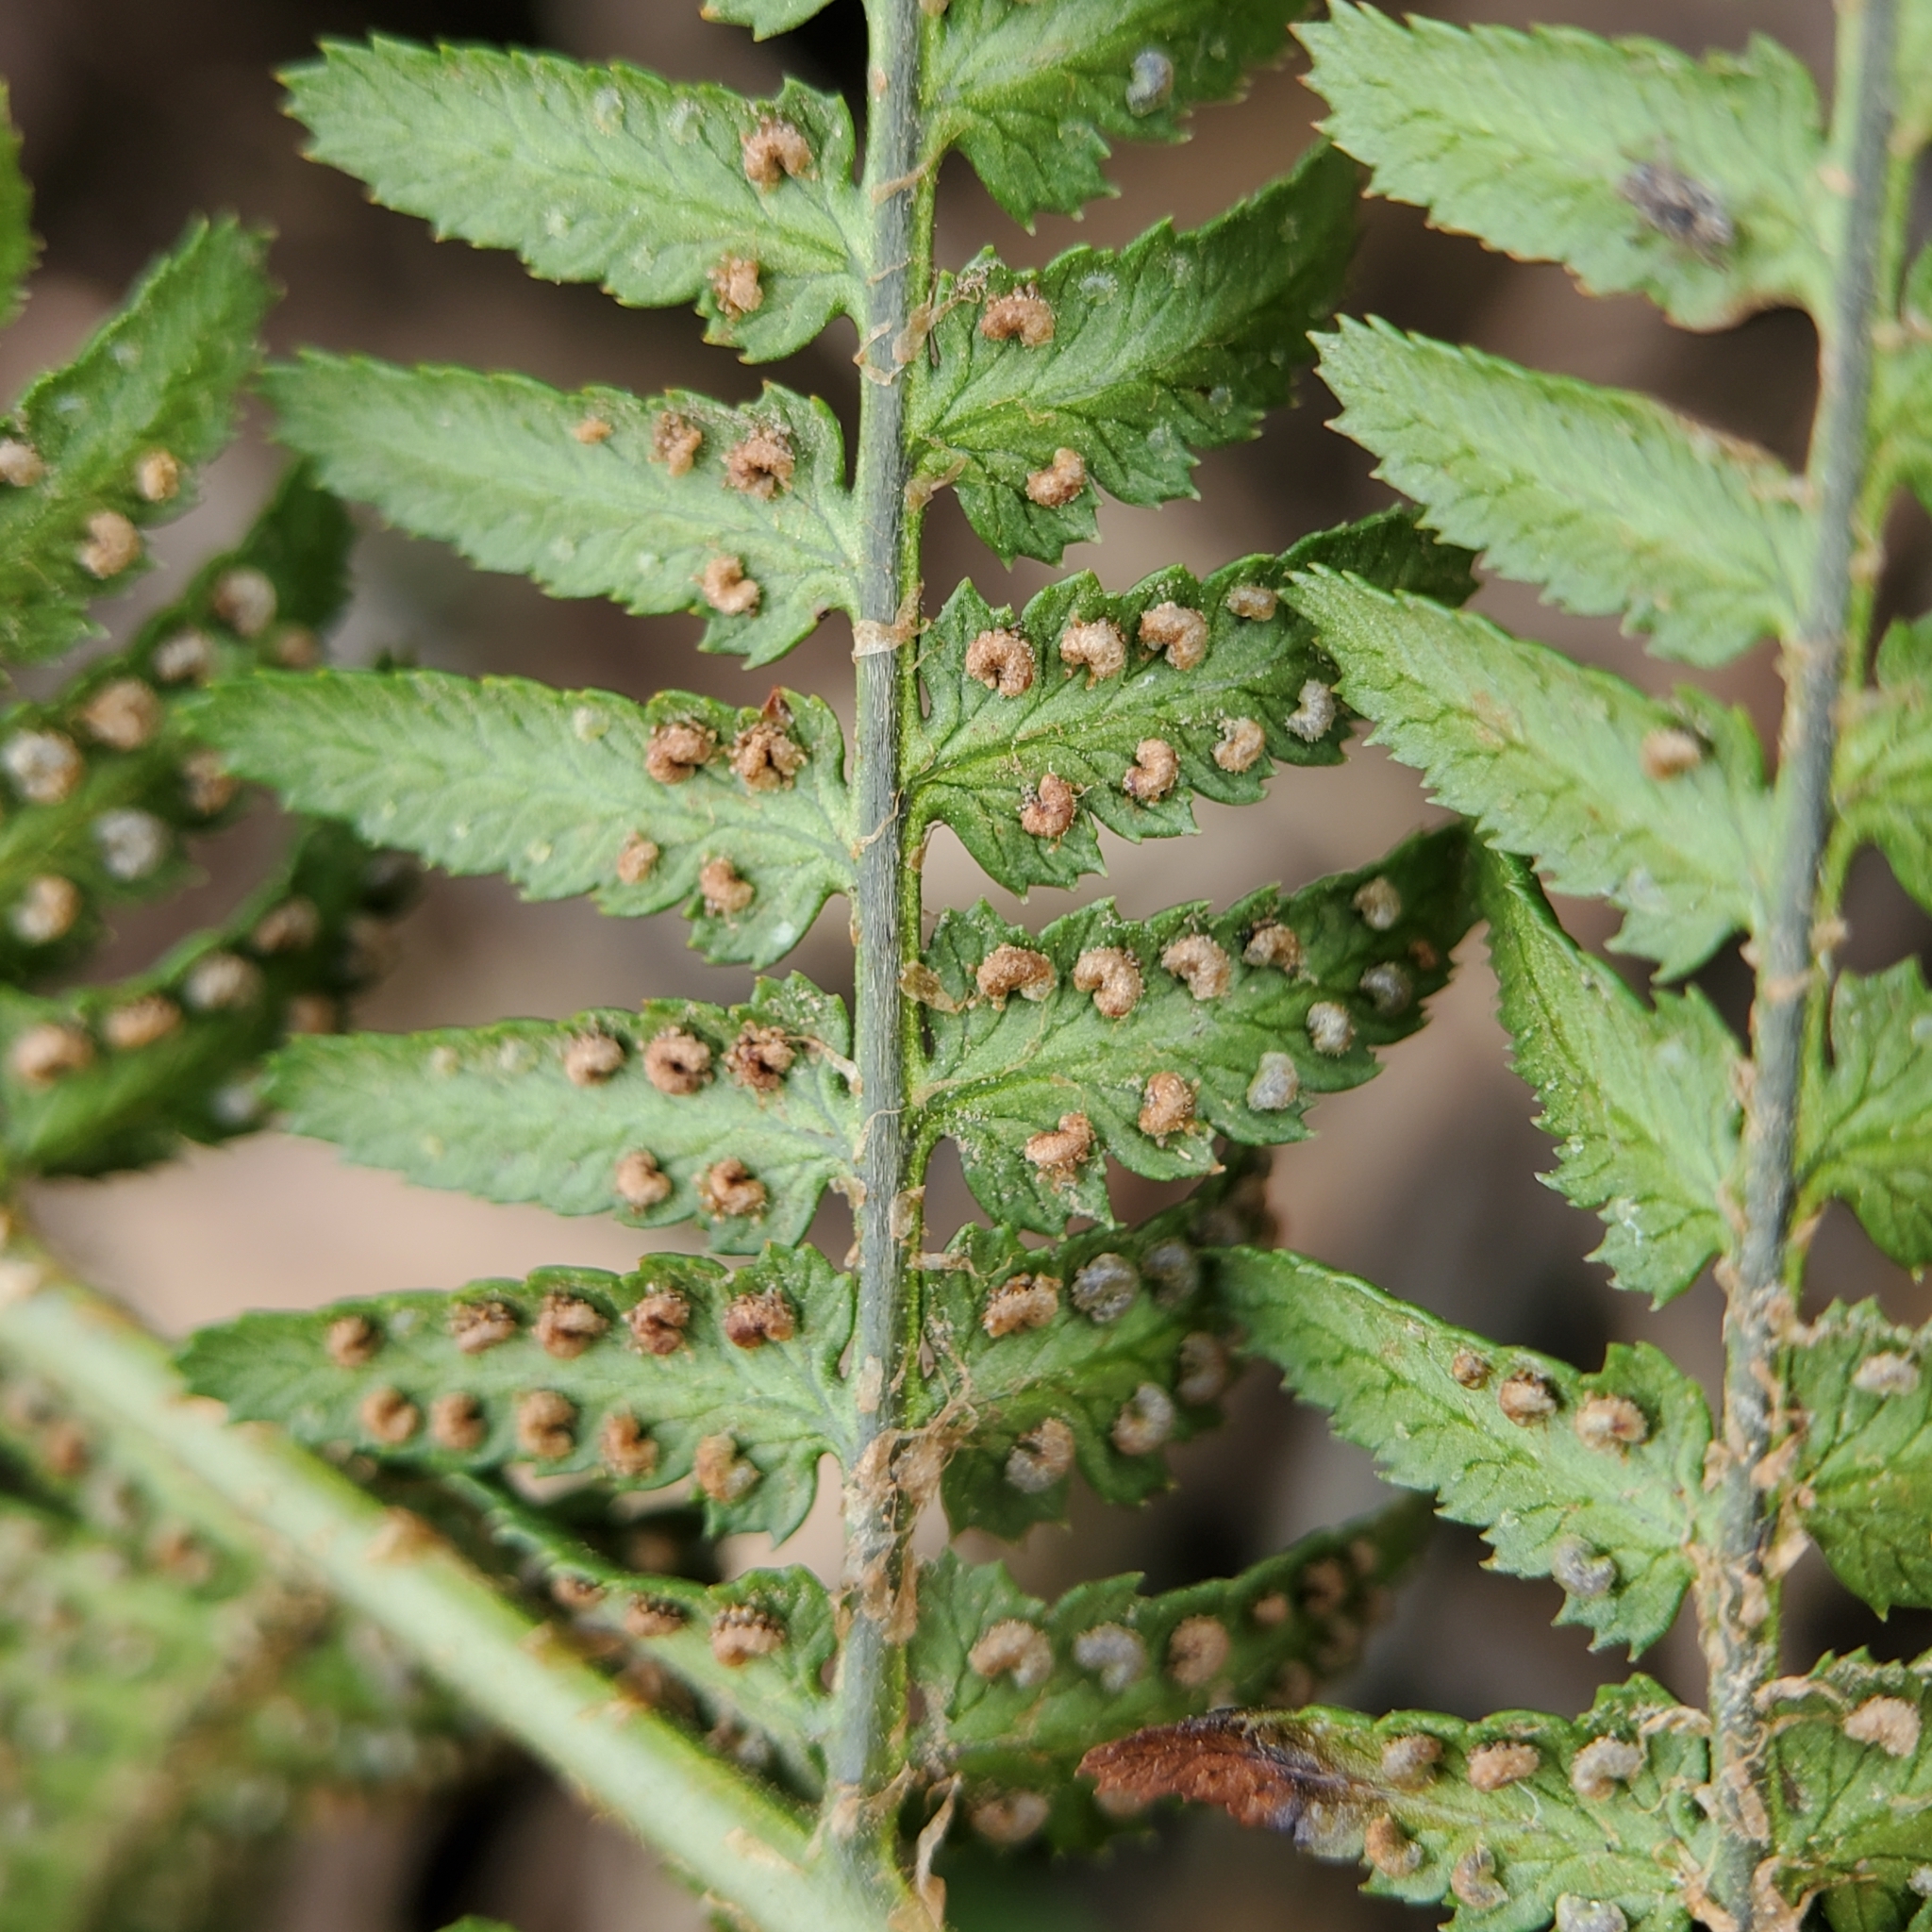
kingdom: Plantae
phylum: Tracheophyta
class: Polypodiopsida
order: Polypodiales
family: Dryopteridaceae
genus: Dryopteris
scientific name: Dryopteris arguta
